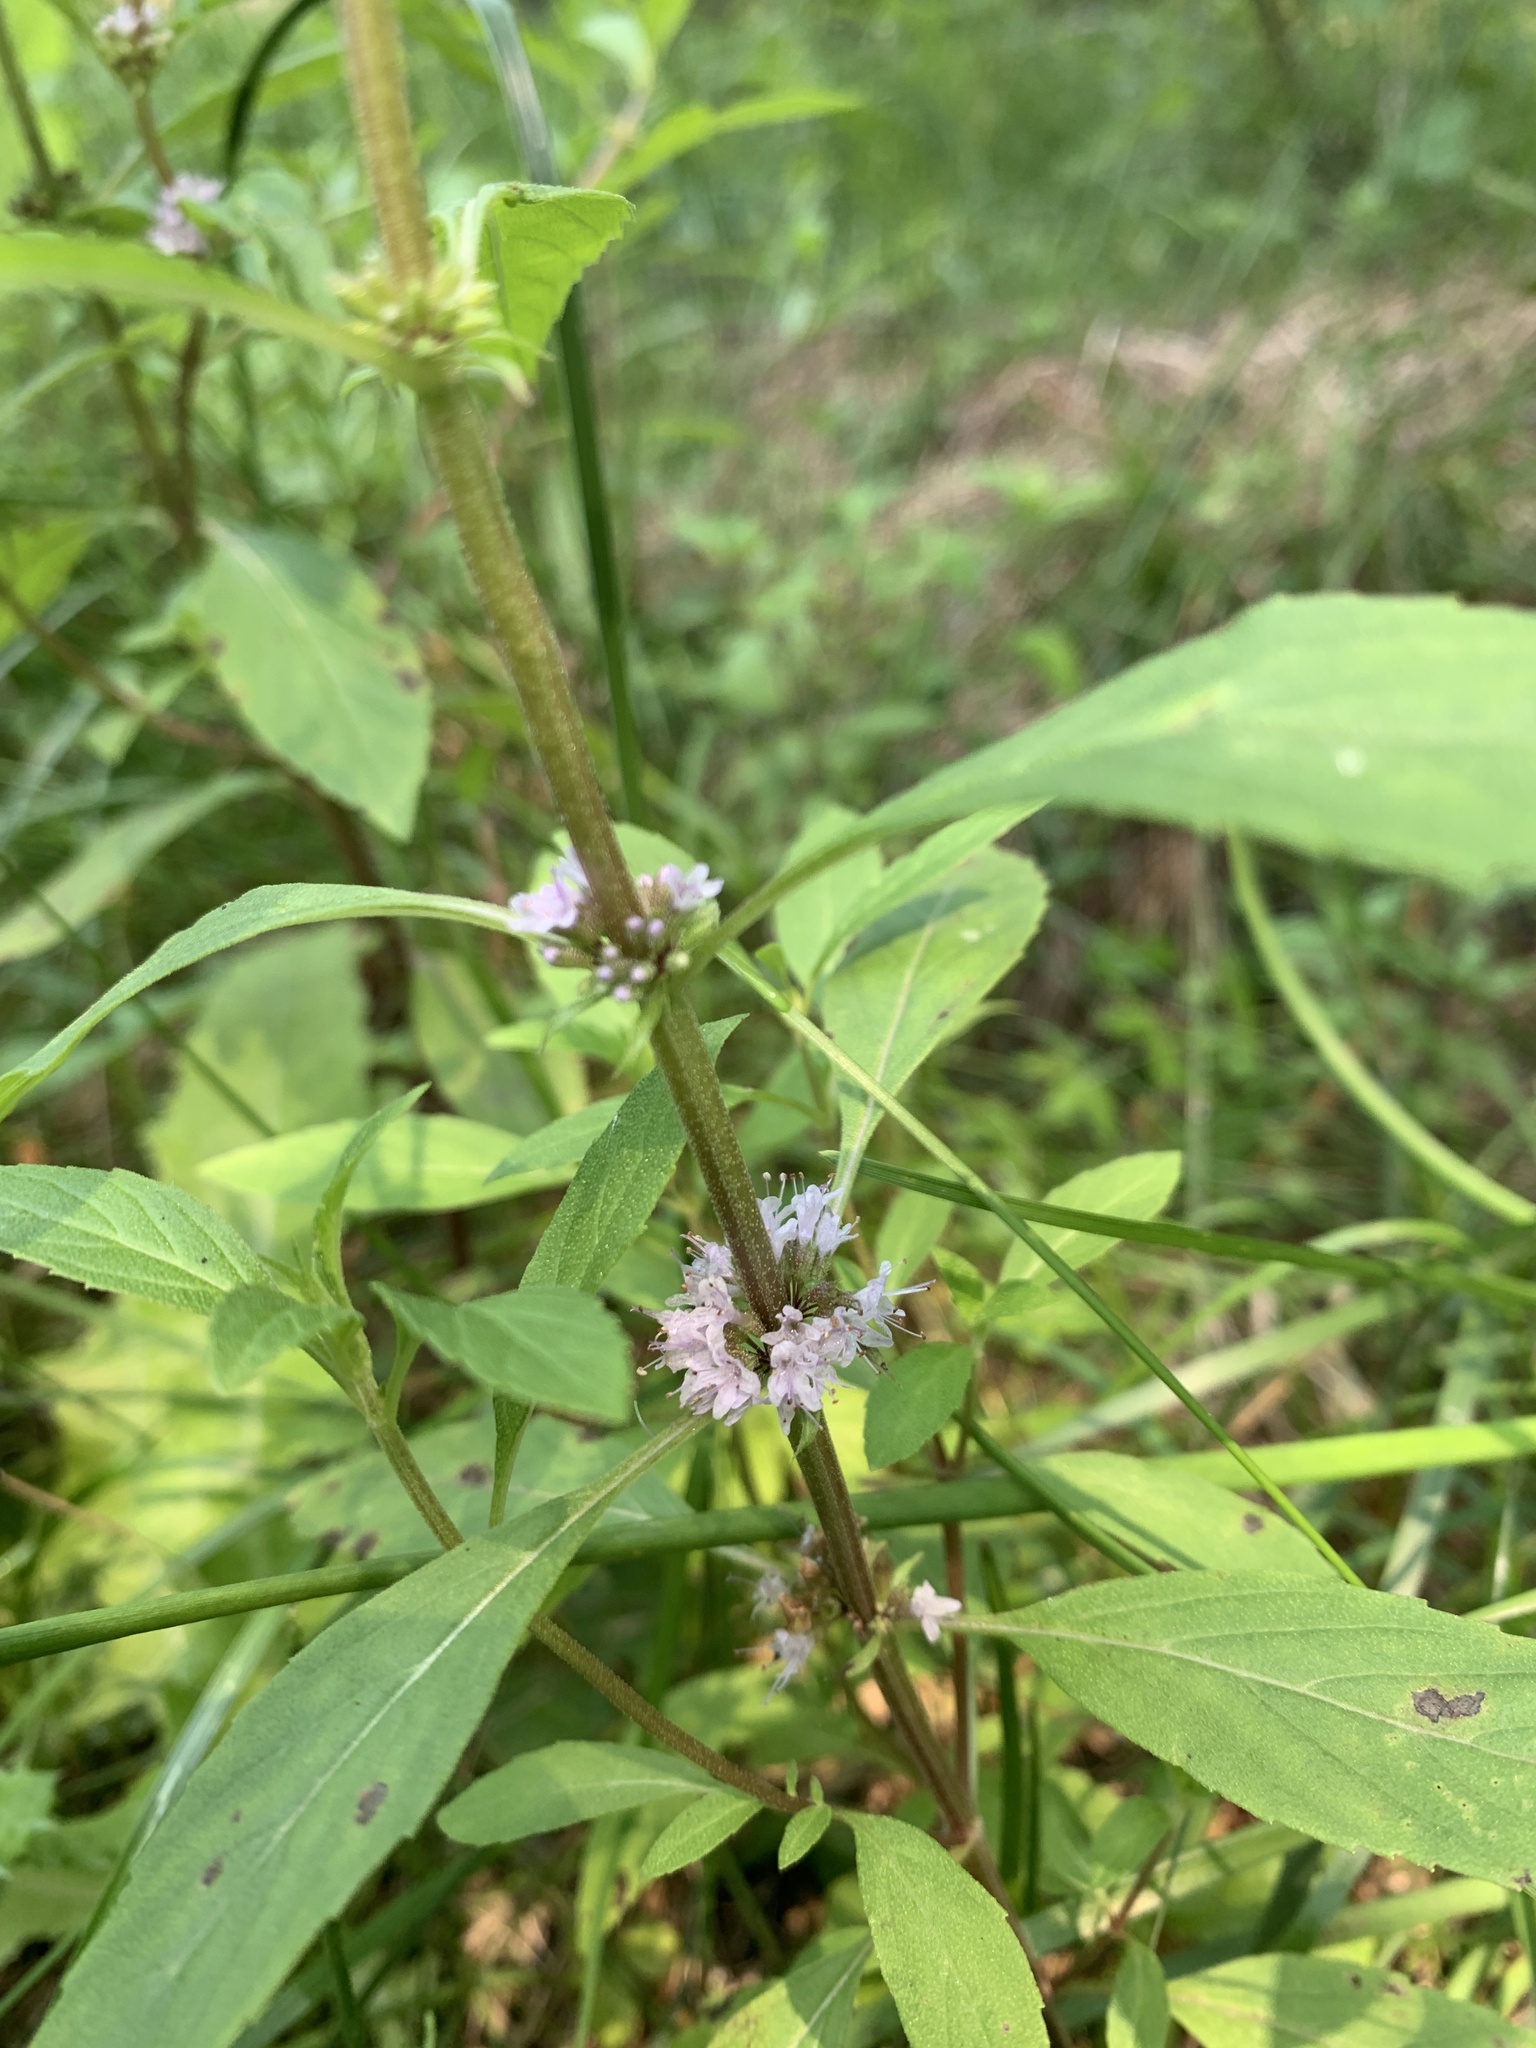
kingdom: Plantae
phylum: Tracheophyta
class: Magnoliopsida
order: Lamiales
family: Lamiaceae
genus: Mentha
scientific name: Mentha canadensis
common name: American corn mint
